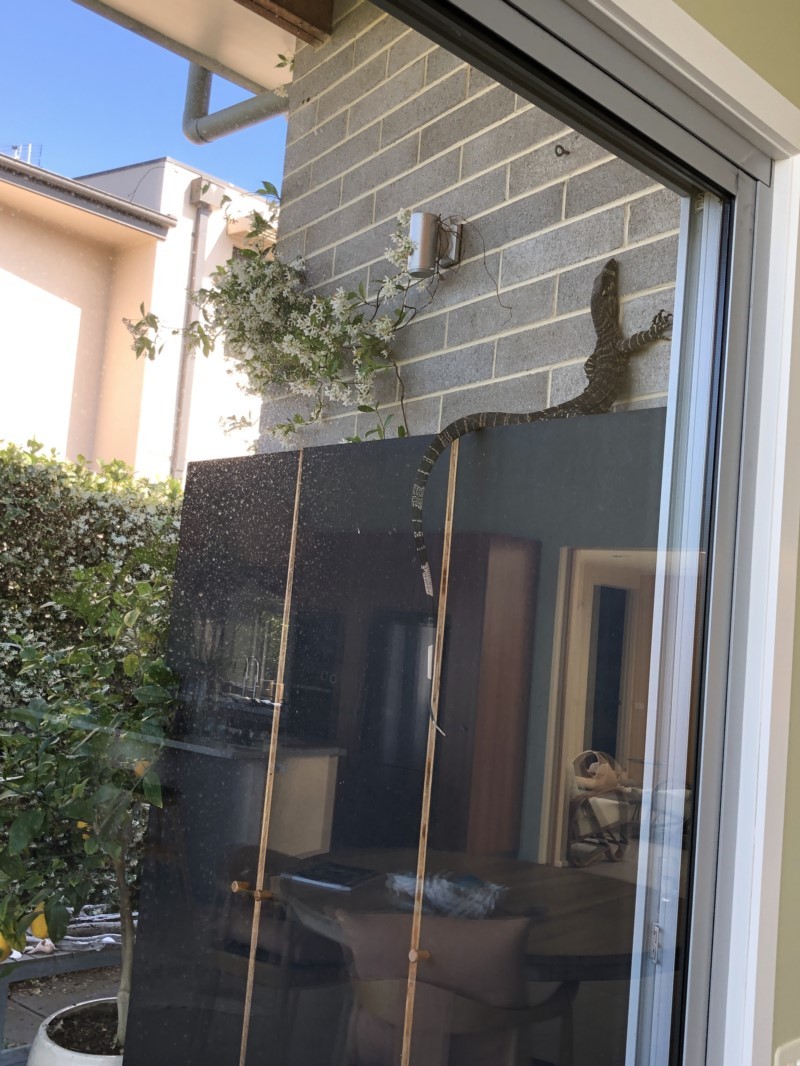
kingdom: Animalia
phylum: Chordata
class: Squamata
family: Varanidae
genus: Varanus
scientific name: Varanus varius
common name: Lace monitor
